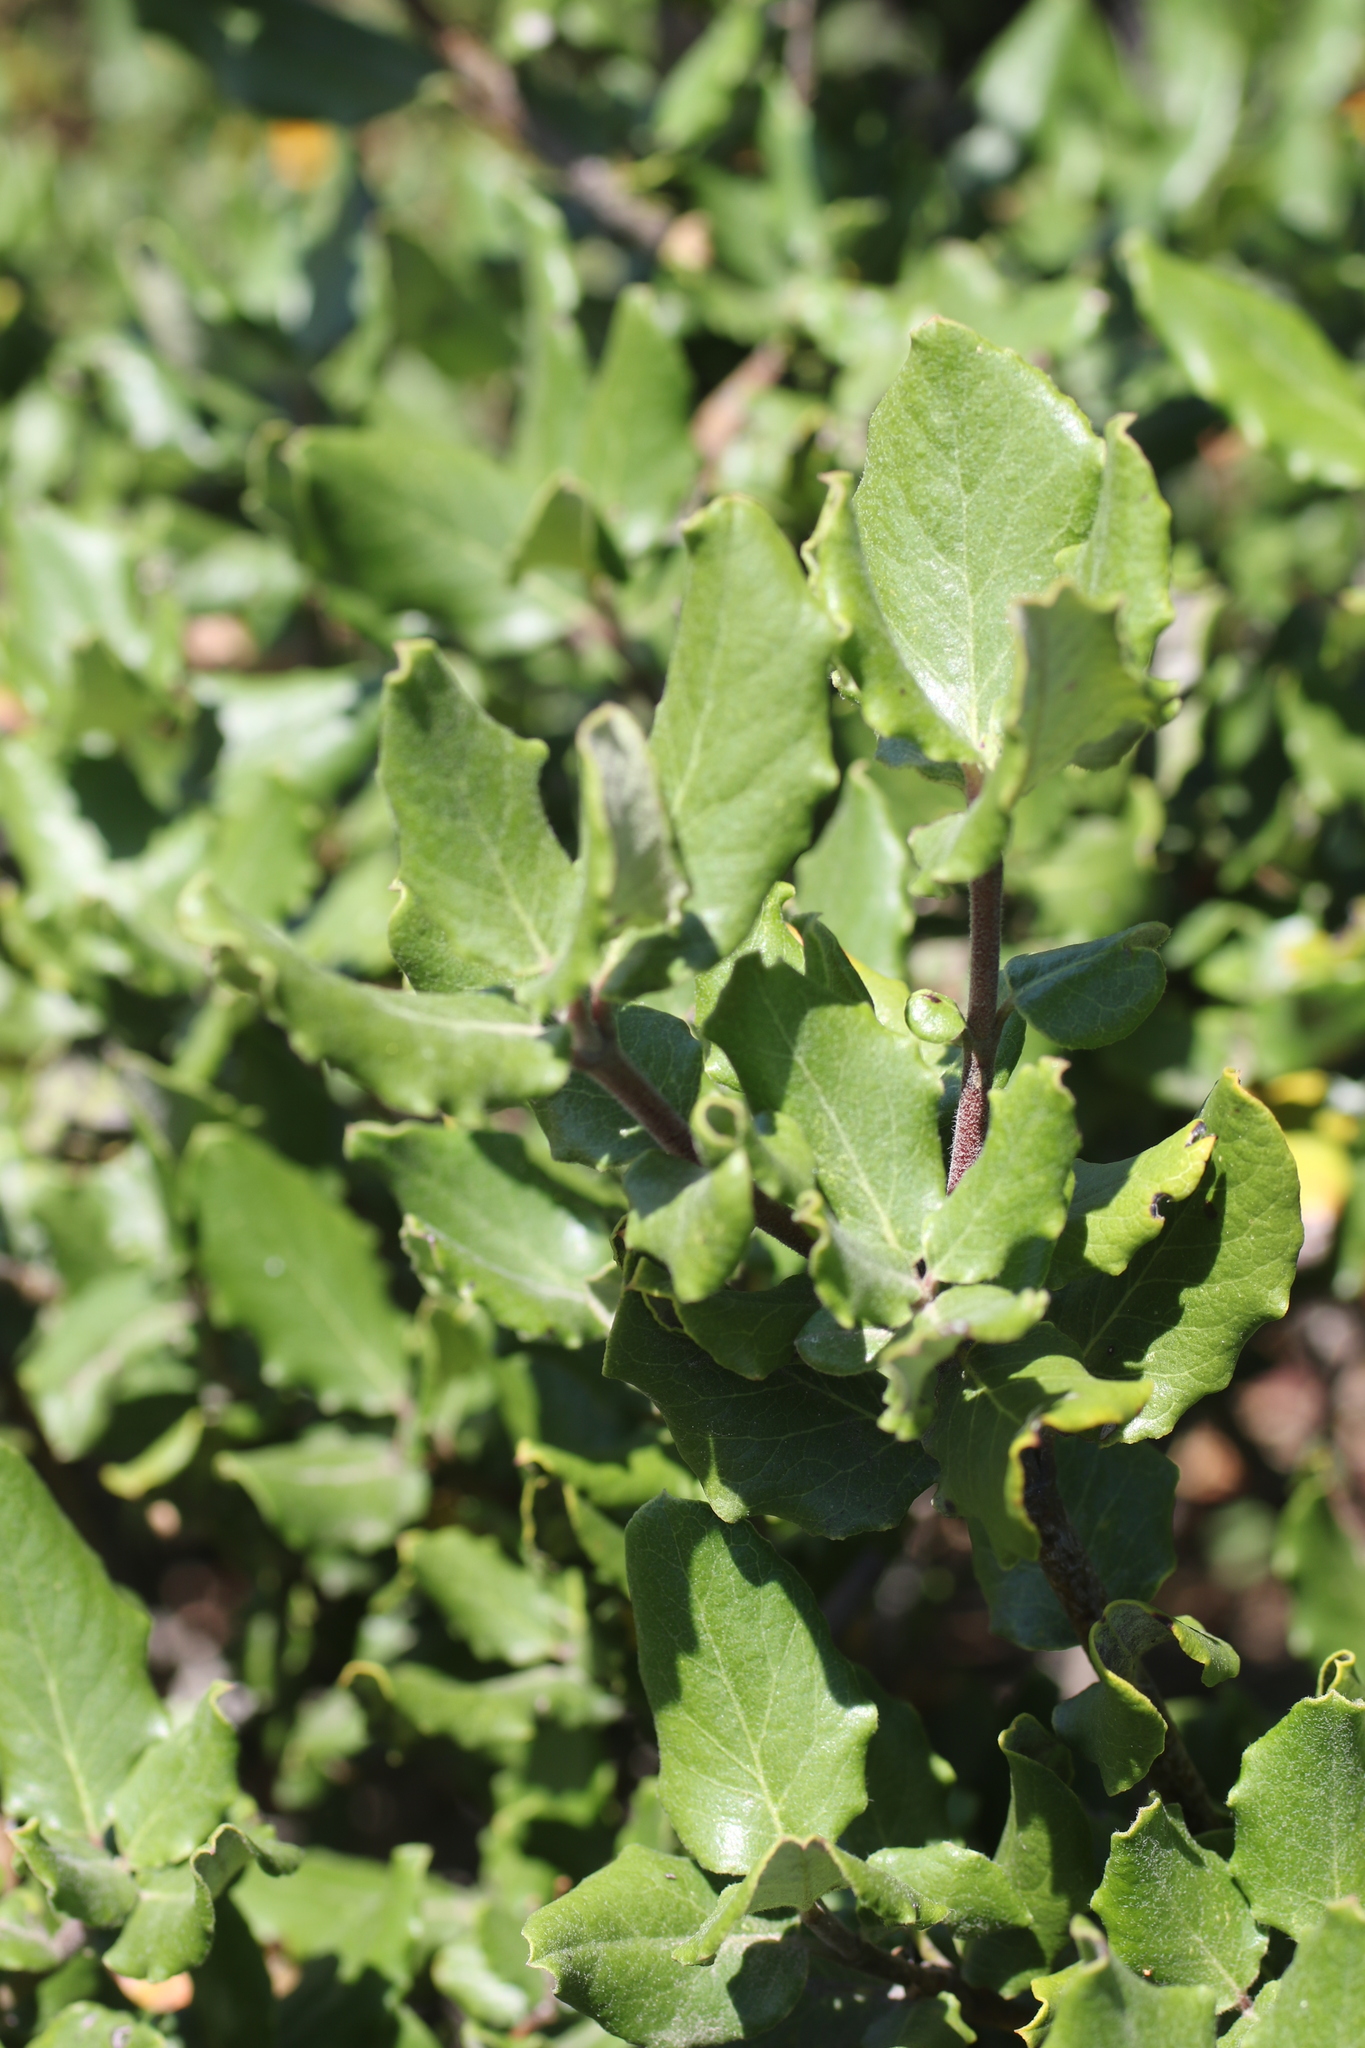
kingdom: Plantae
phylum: Tracheophyta
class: Magnoliopsida
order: Garryales
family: Garryaceae
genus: Garrya
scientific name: Garrya elliptica
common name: Silk-tassel
